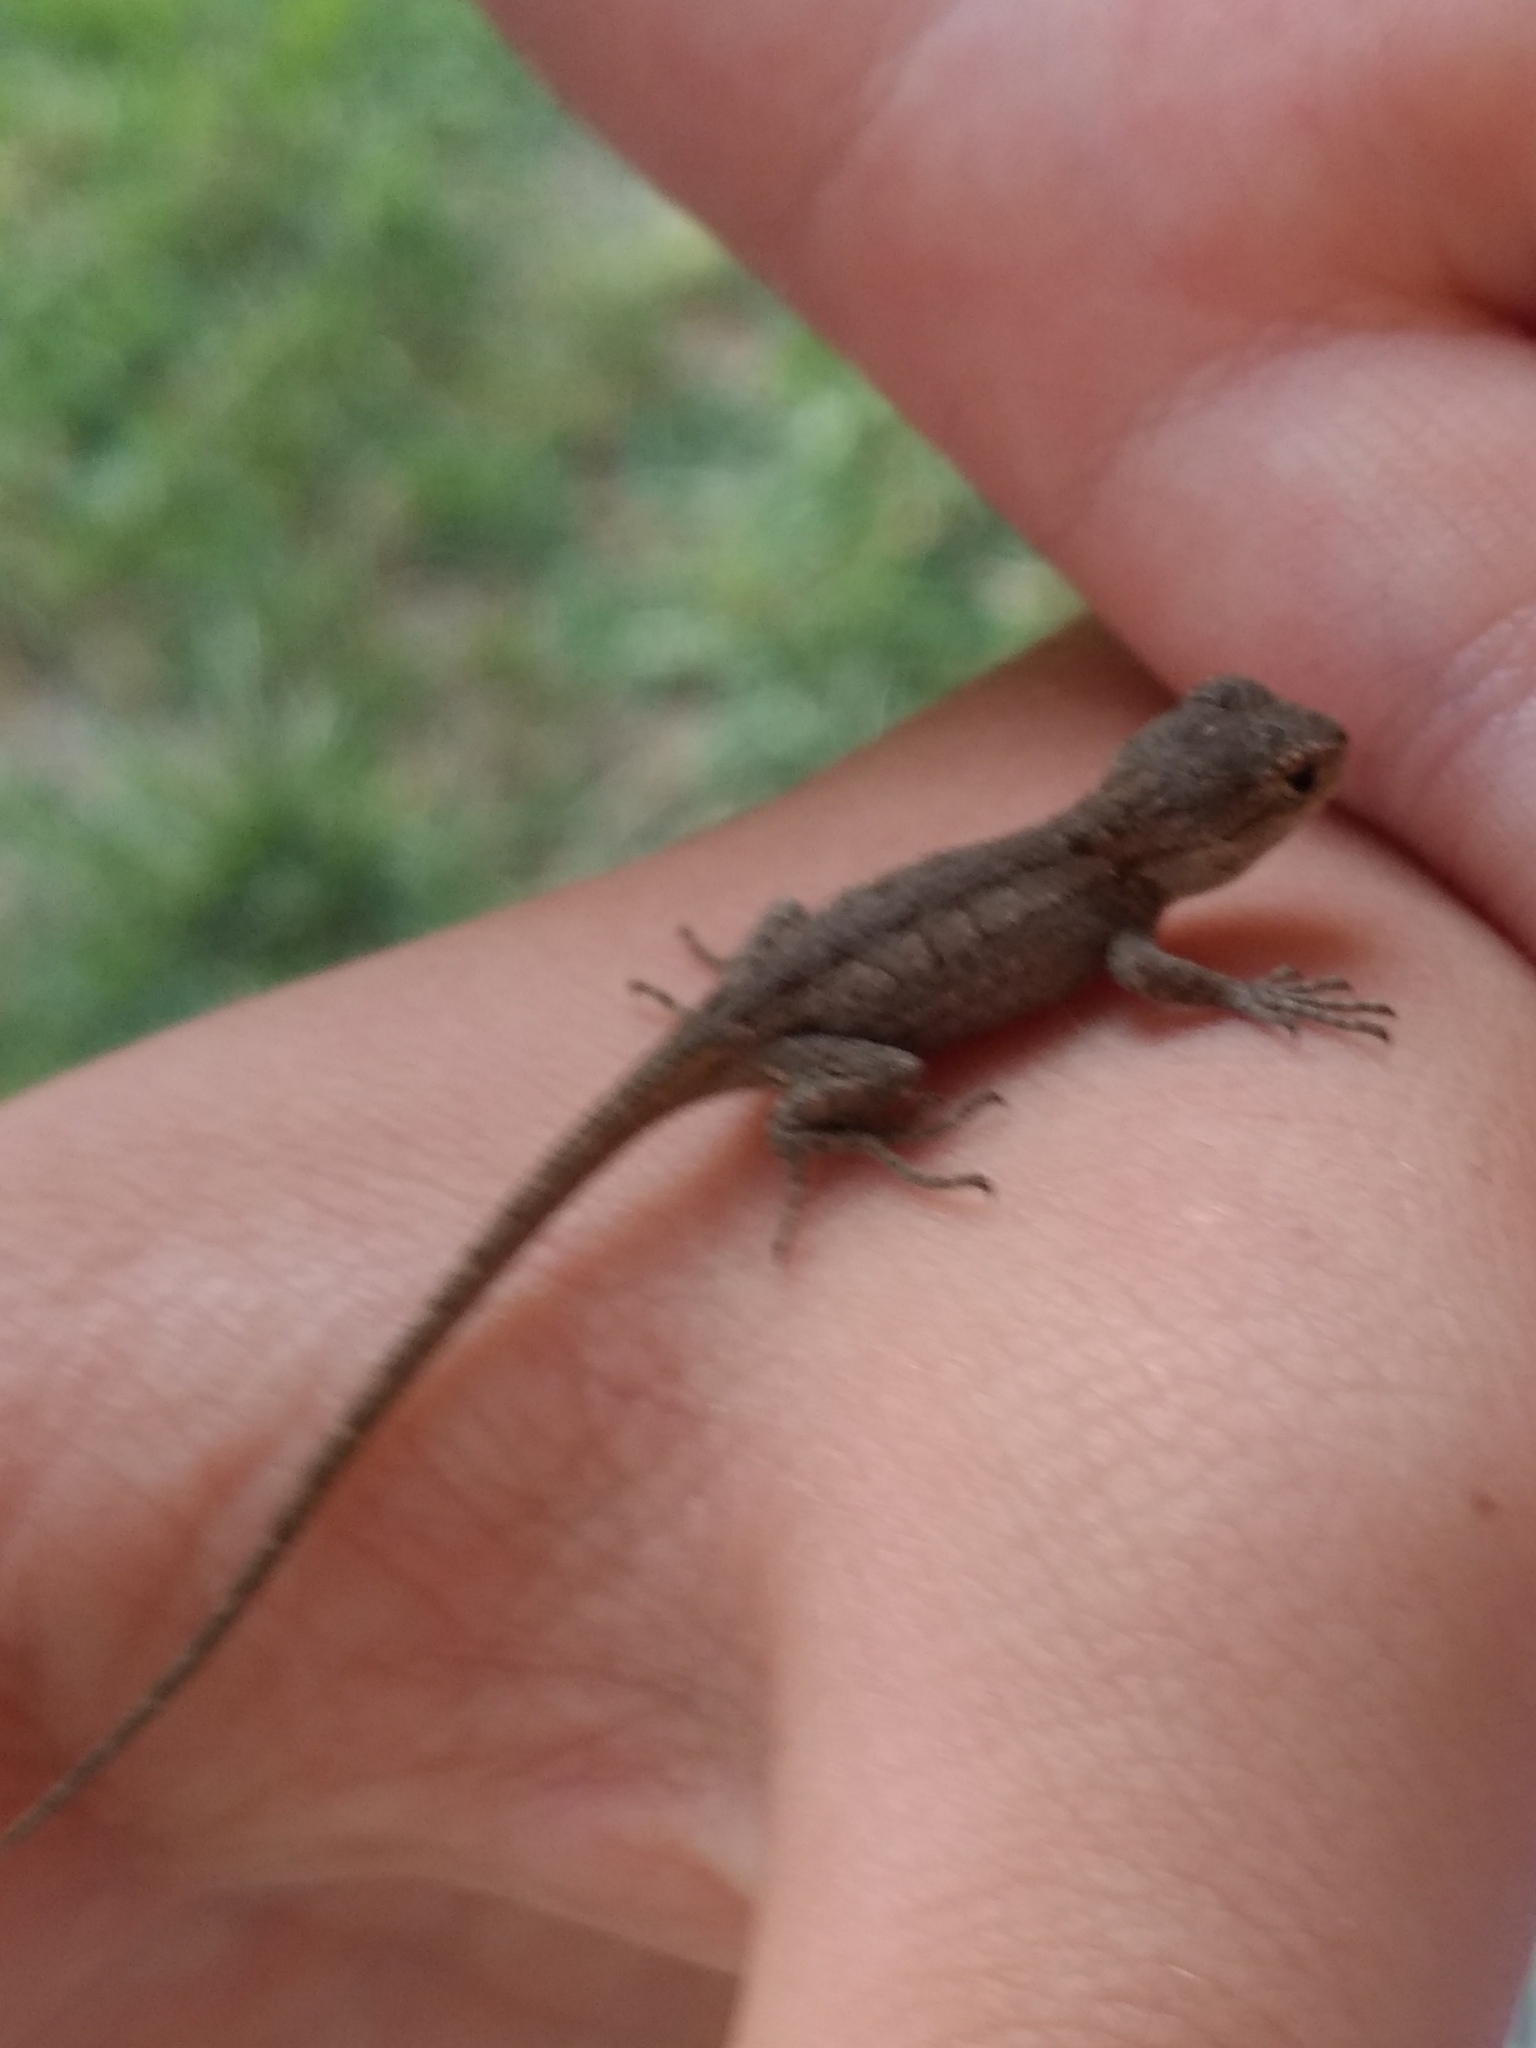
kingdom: Animalia
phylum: Chordata
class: Squamata
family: Phrynosomatidae
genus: Sceloporus
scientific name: Sceloporus occidentalis
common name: Western fence lizard
